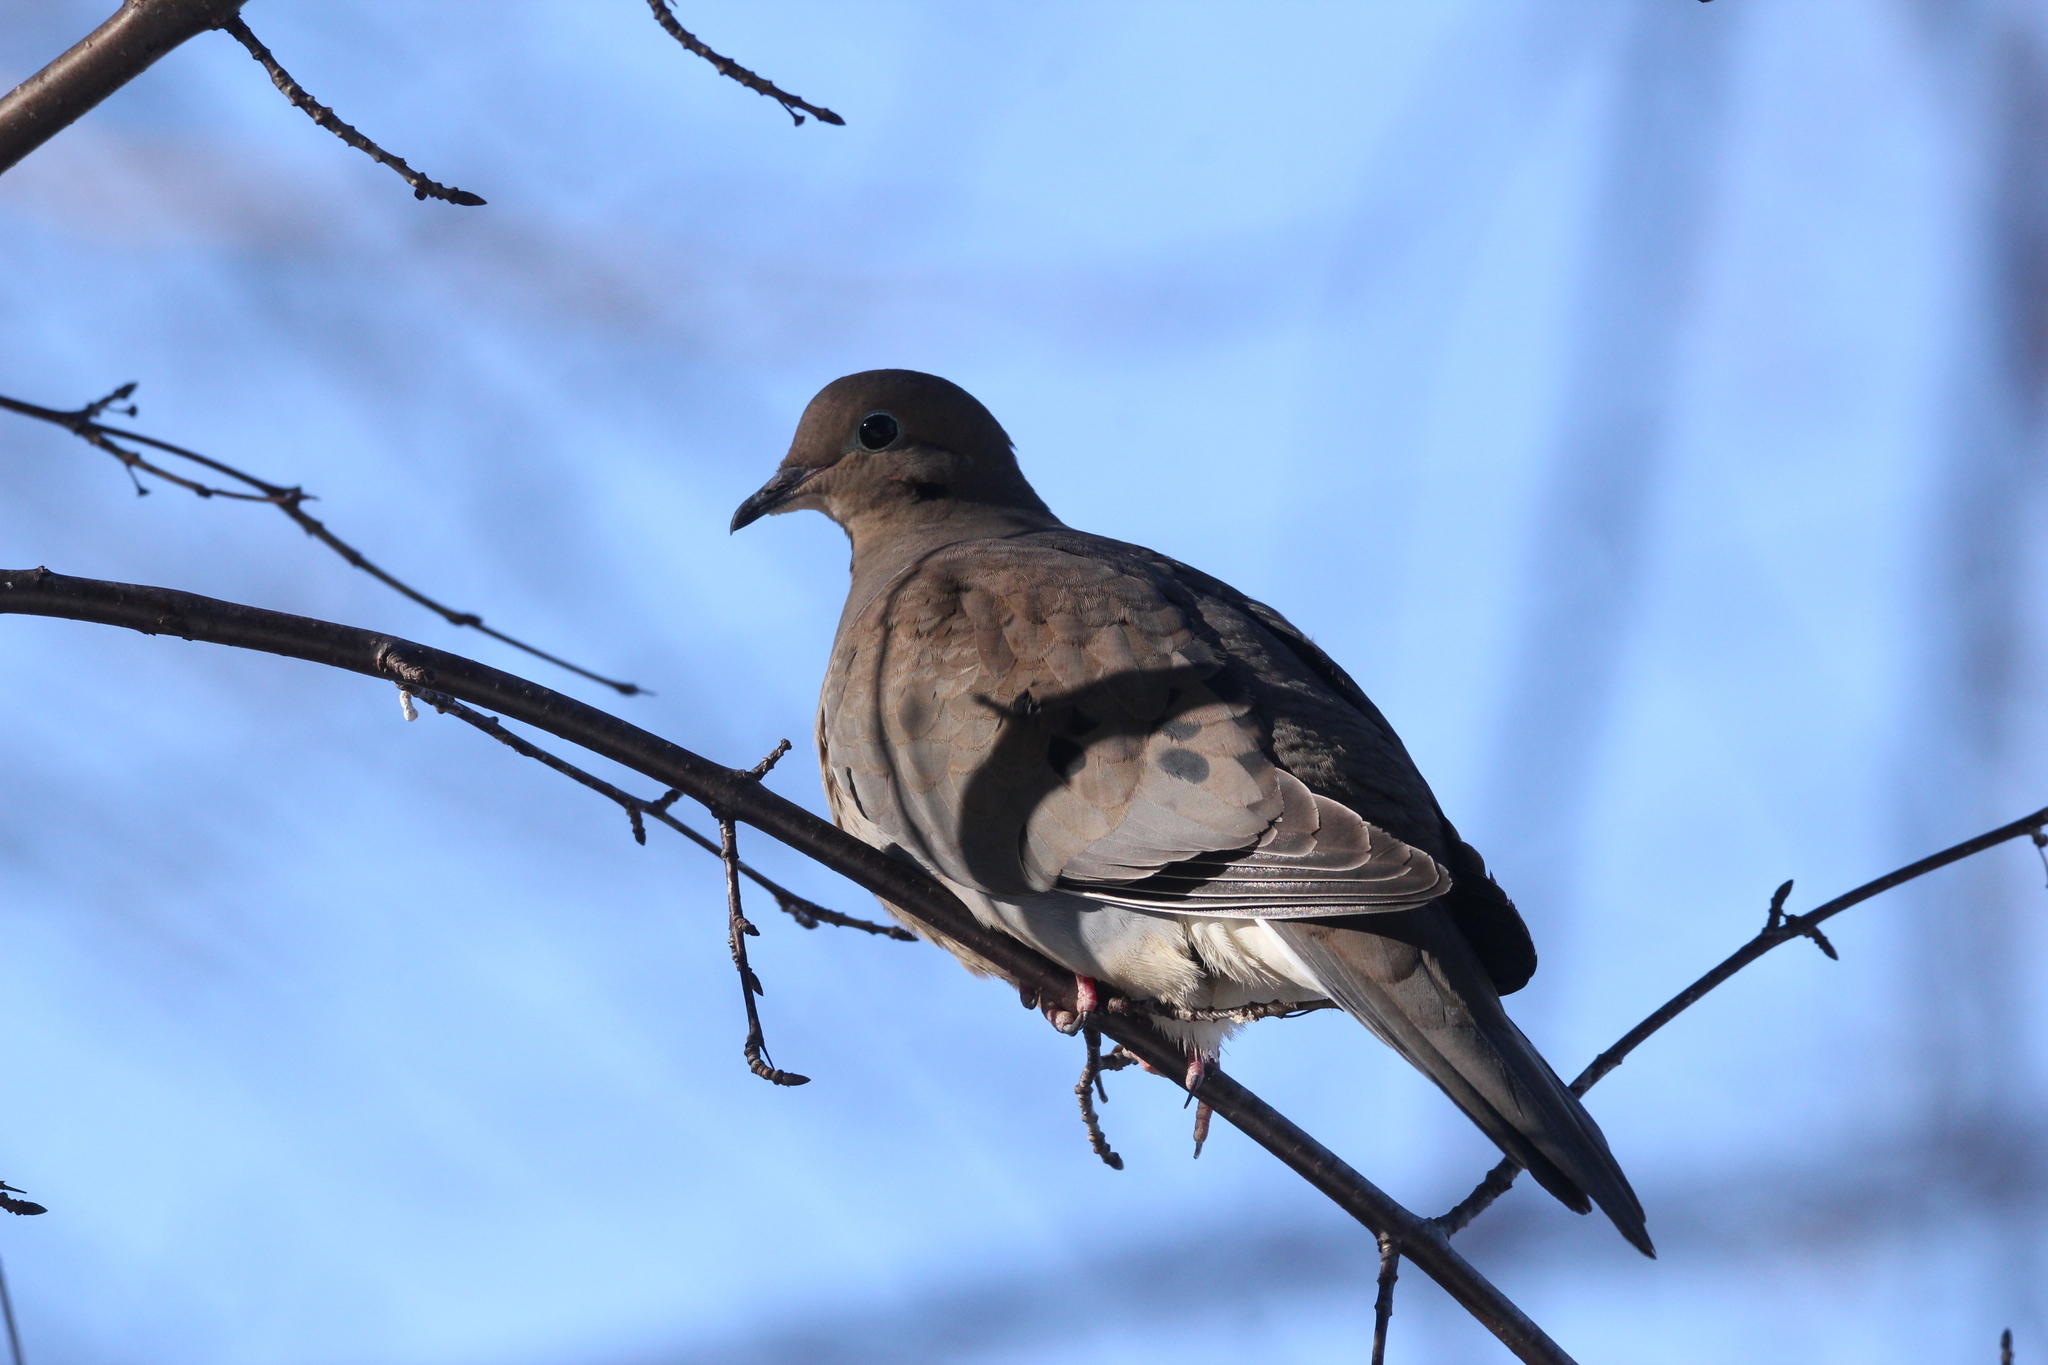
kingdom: Animalia
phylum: Chordata
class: Aves
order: Columbiformes
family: Columbidae
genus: Zenaida
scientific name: Zenaida macroura
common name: Mourning dove
